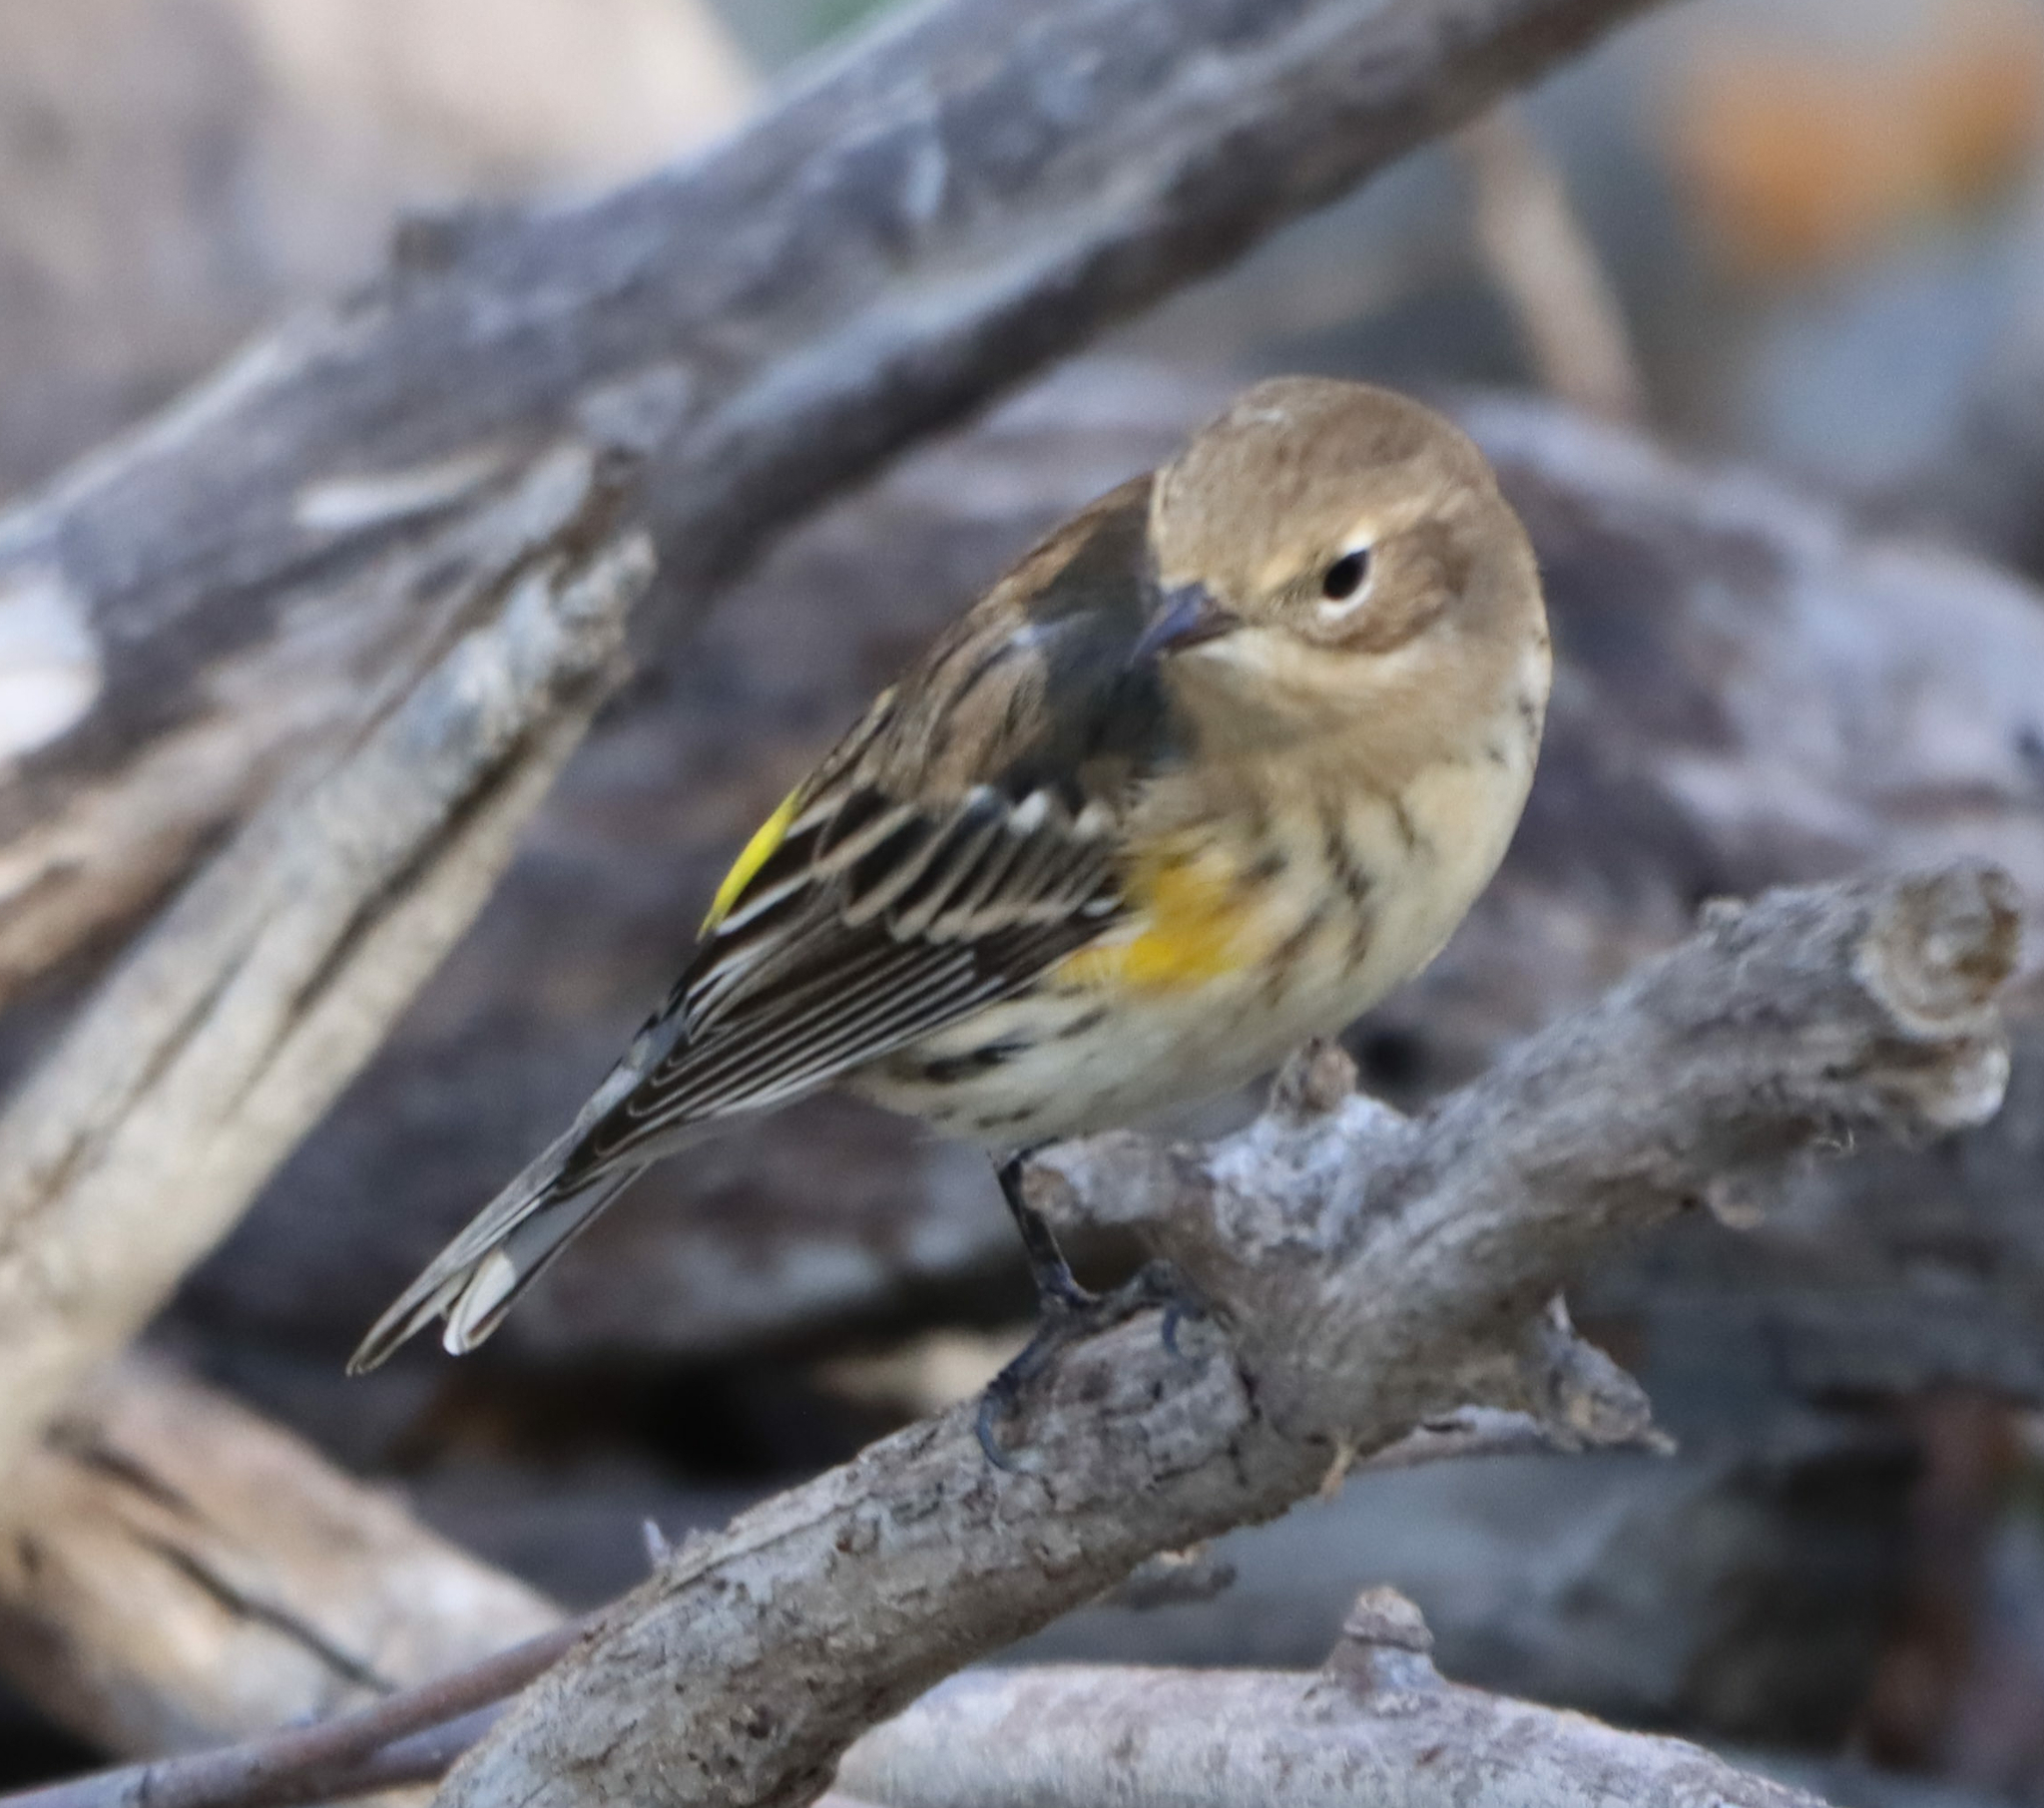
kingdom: Animalia
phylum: Chordata
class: Aves
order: Passeriformes
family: Parulidae
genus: Setophaga
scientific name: Setophaga coronata
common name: Myrtle warbler
